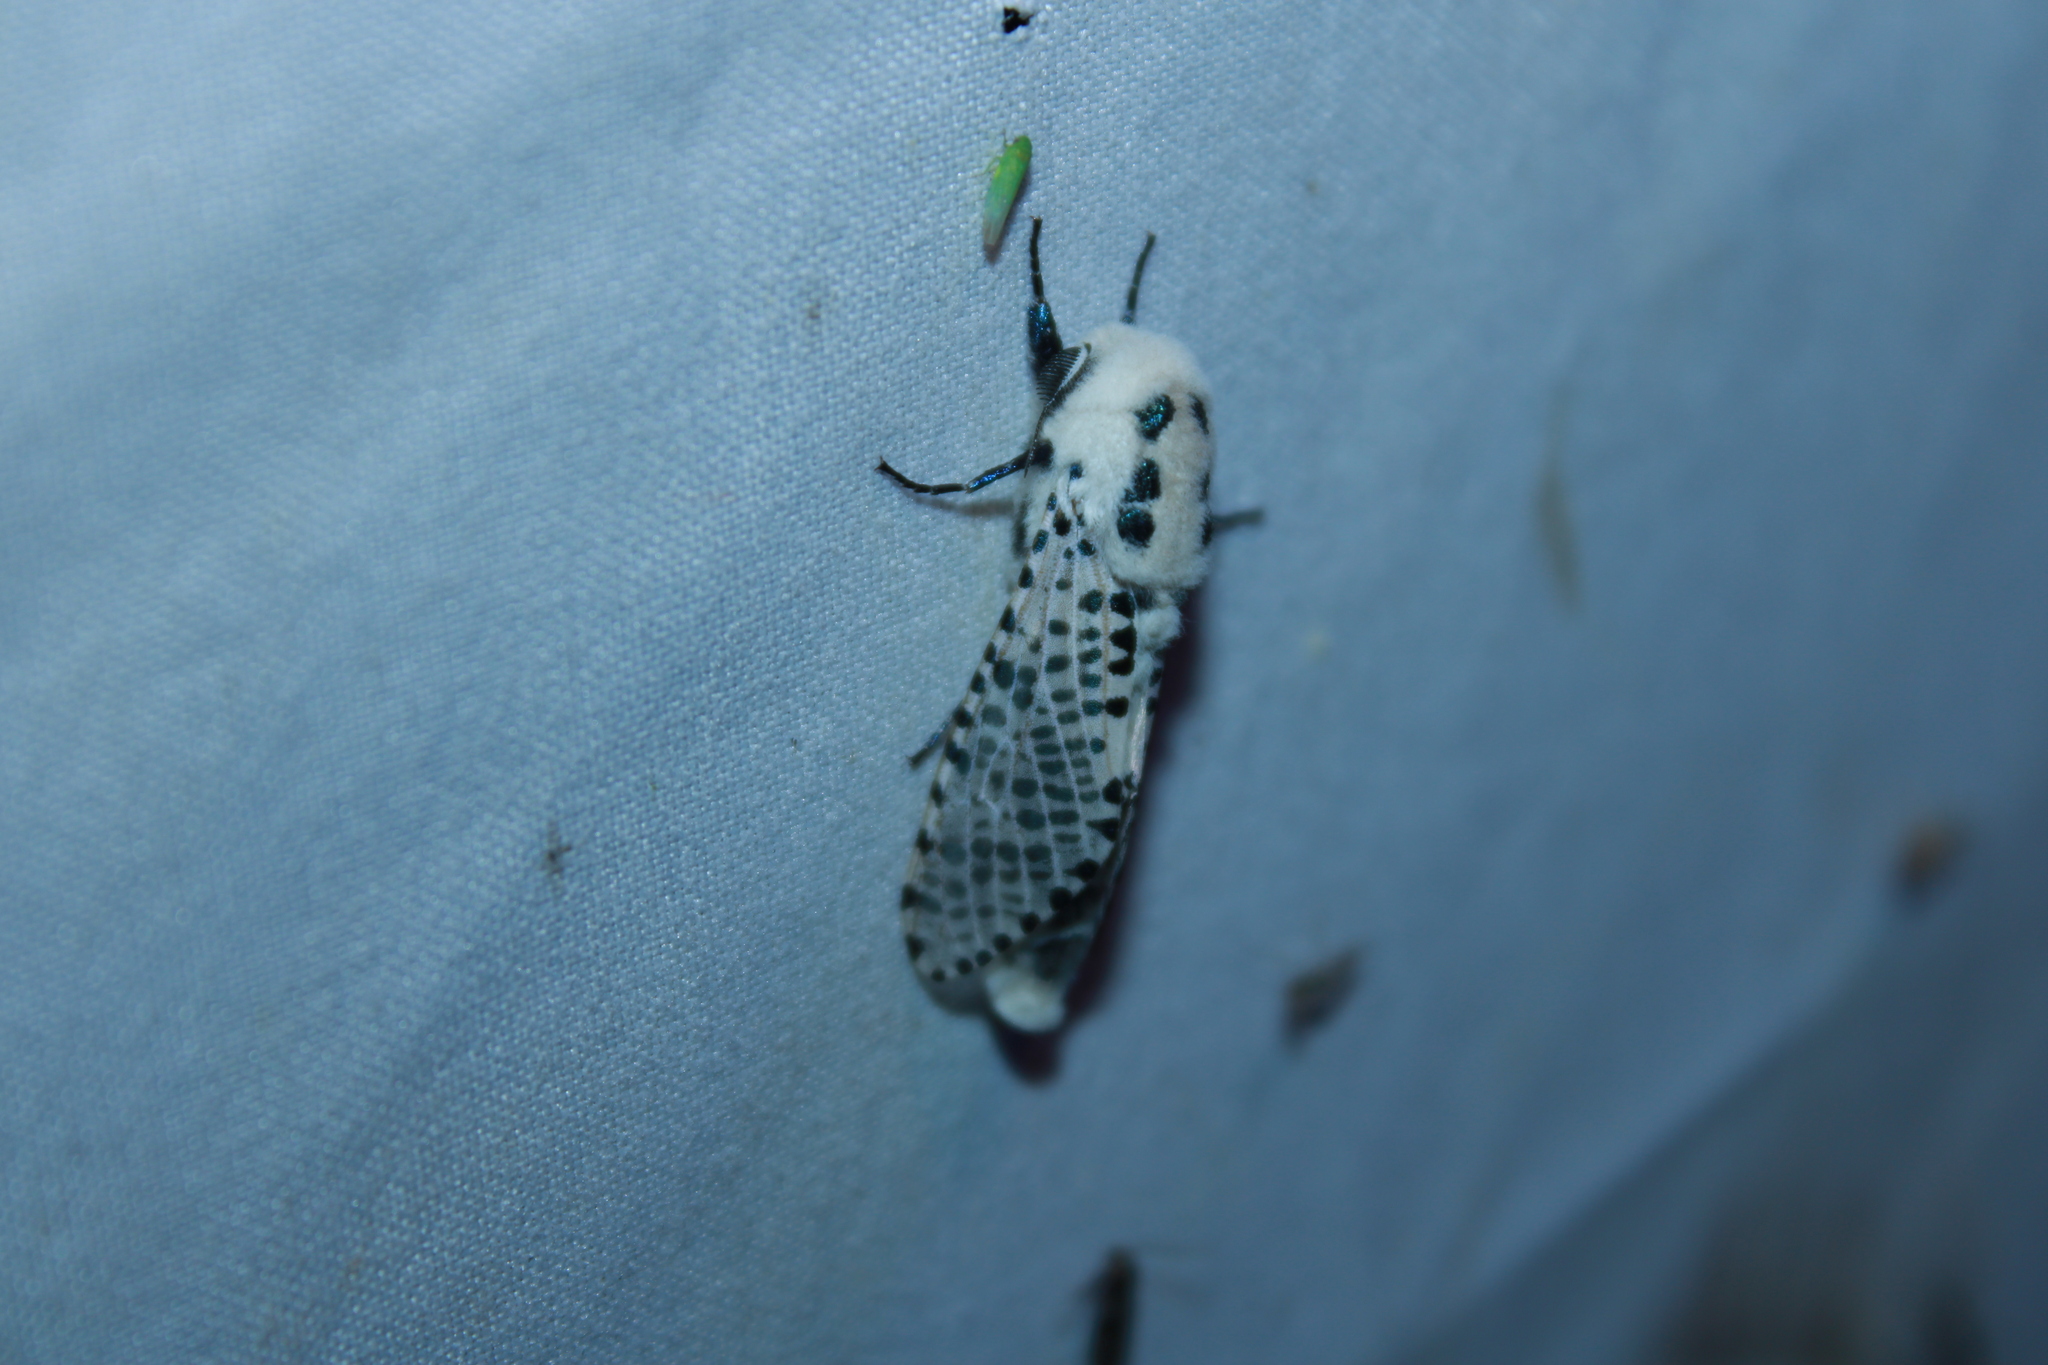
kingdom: Animalia
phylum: Arthropoda
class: Insecta
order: Lepidoptera
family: Cossidae
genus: Zeuzera
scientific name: Zeuzera pyrina
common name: Leopard moth
